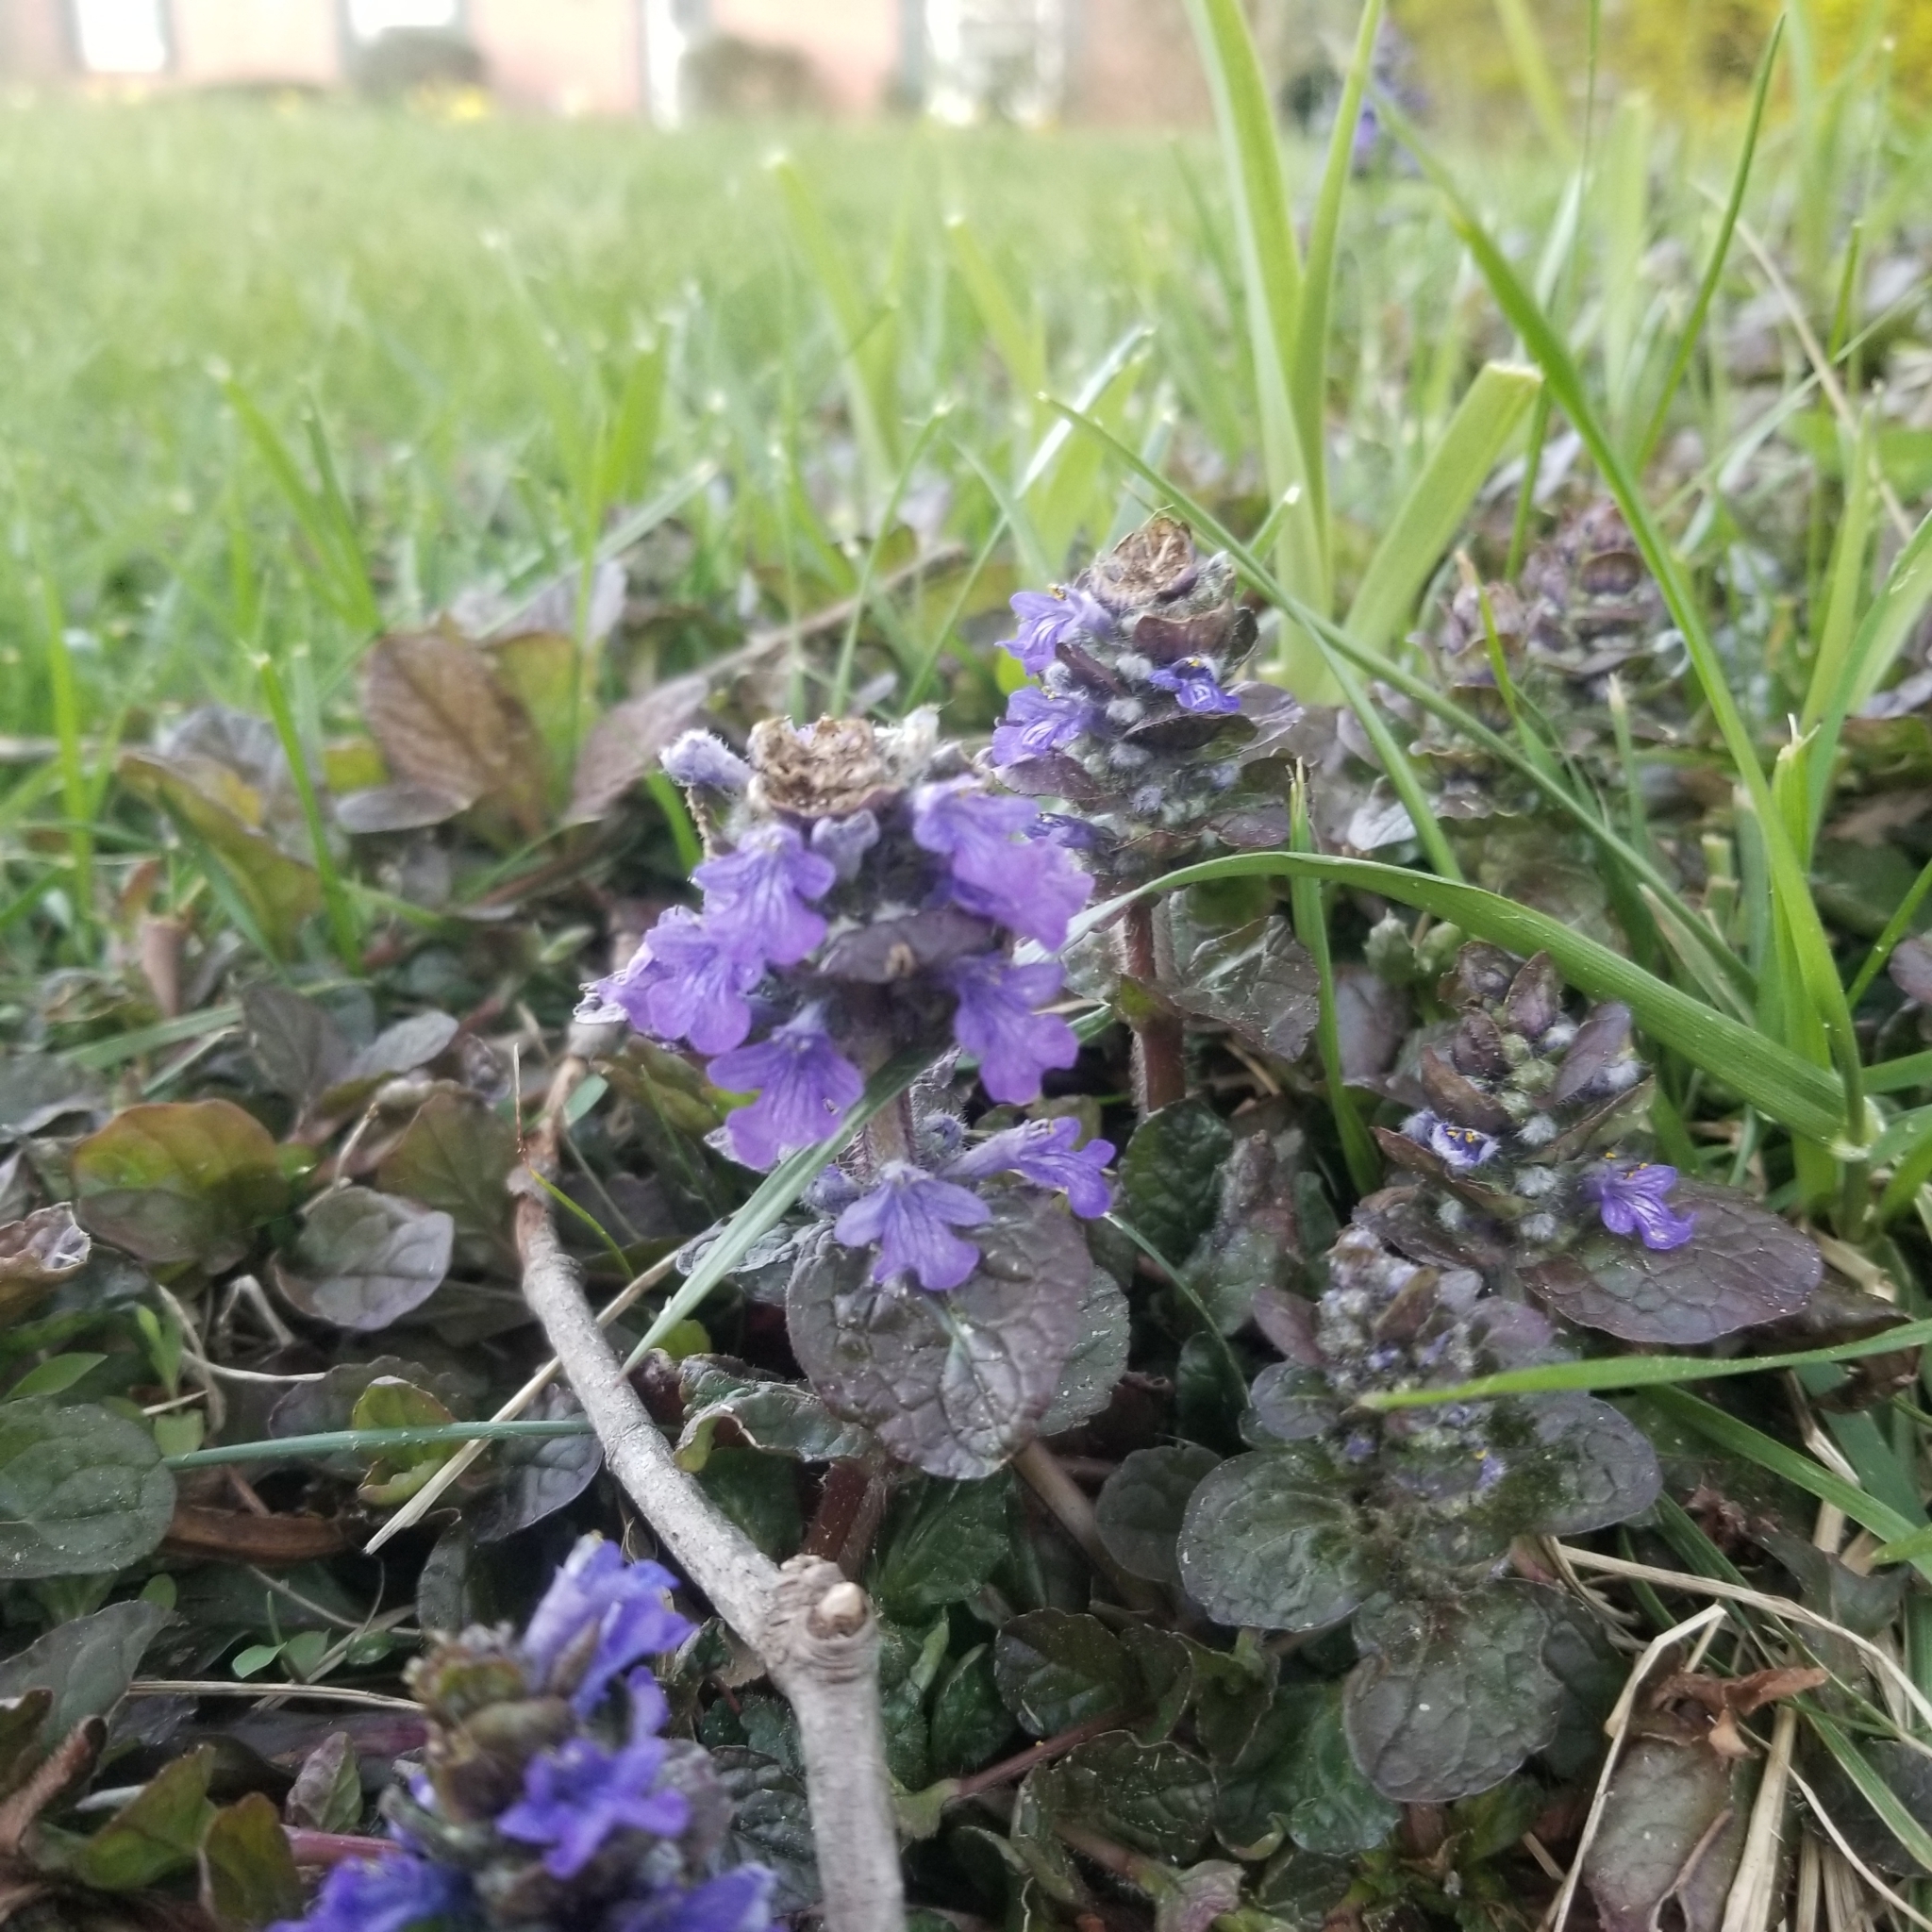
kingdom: Plantae
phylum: Tracheophyta
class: Magnoliopsida
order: Lamiales
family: Lamiaceae
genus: Ajuga
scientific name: Ajuga reptans
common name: Bugle
